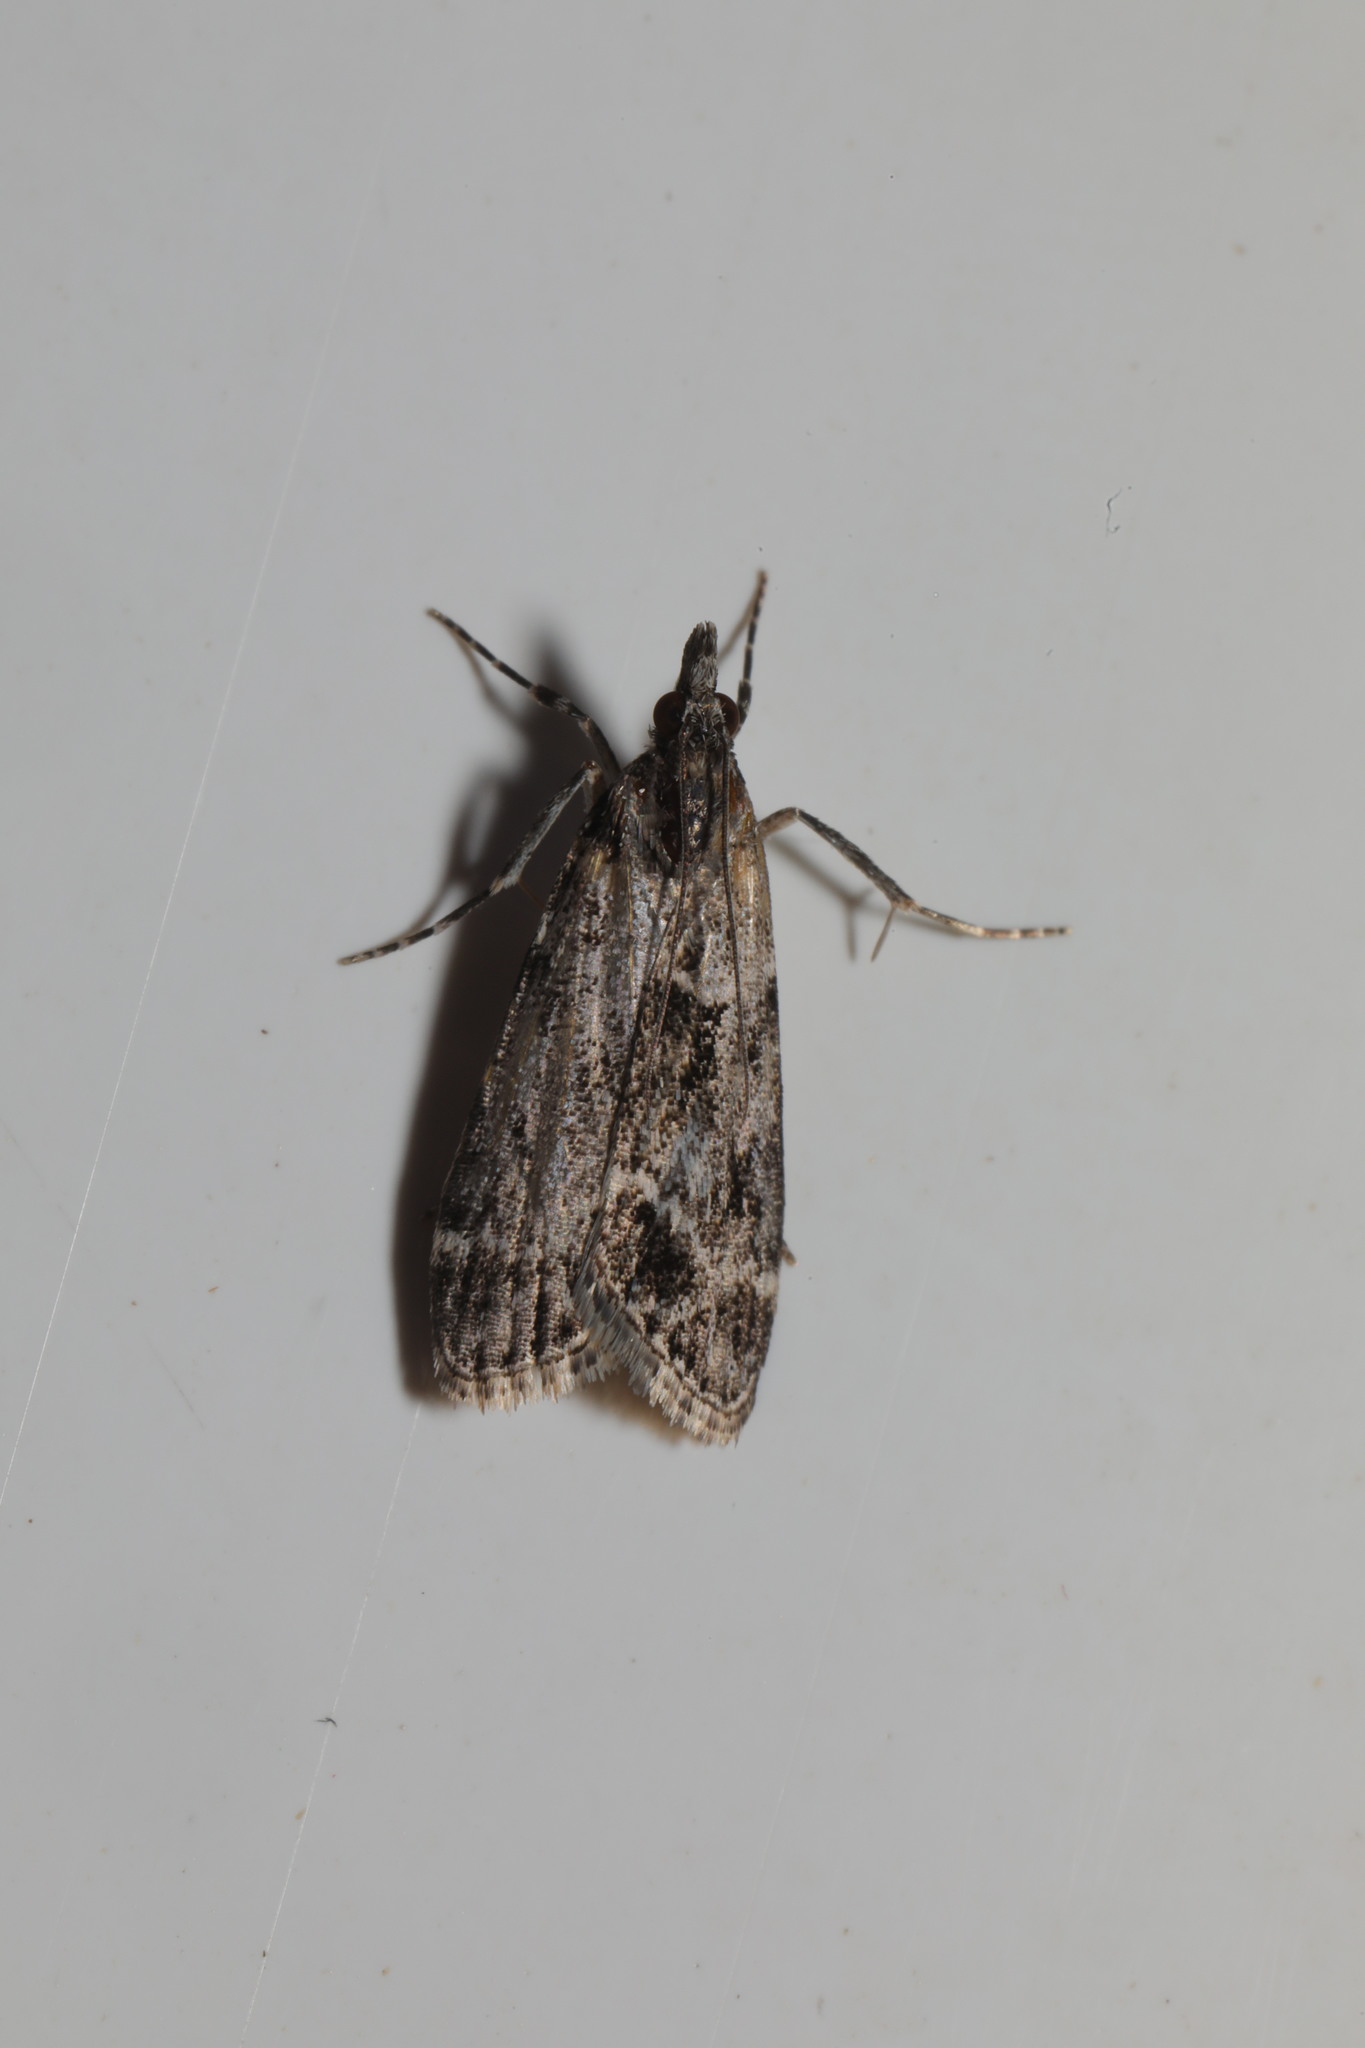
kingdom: Animalia
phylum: Arthropoda
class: Insecta
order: Lepidoptera
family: Crambidae
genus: Eudonia
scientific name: Eudonia mercurella
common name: Small grey
